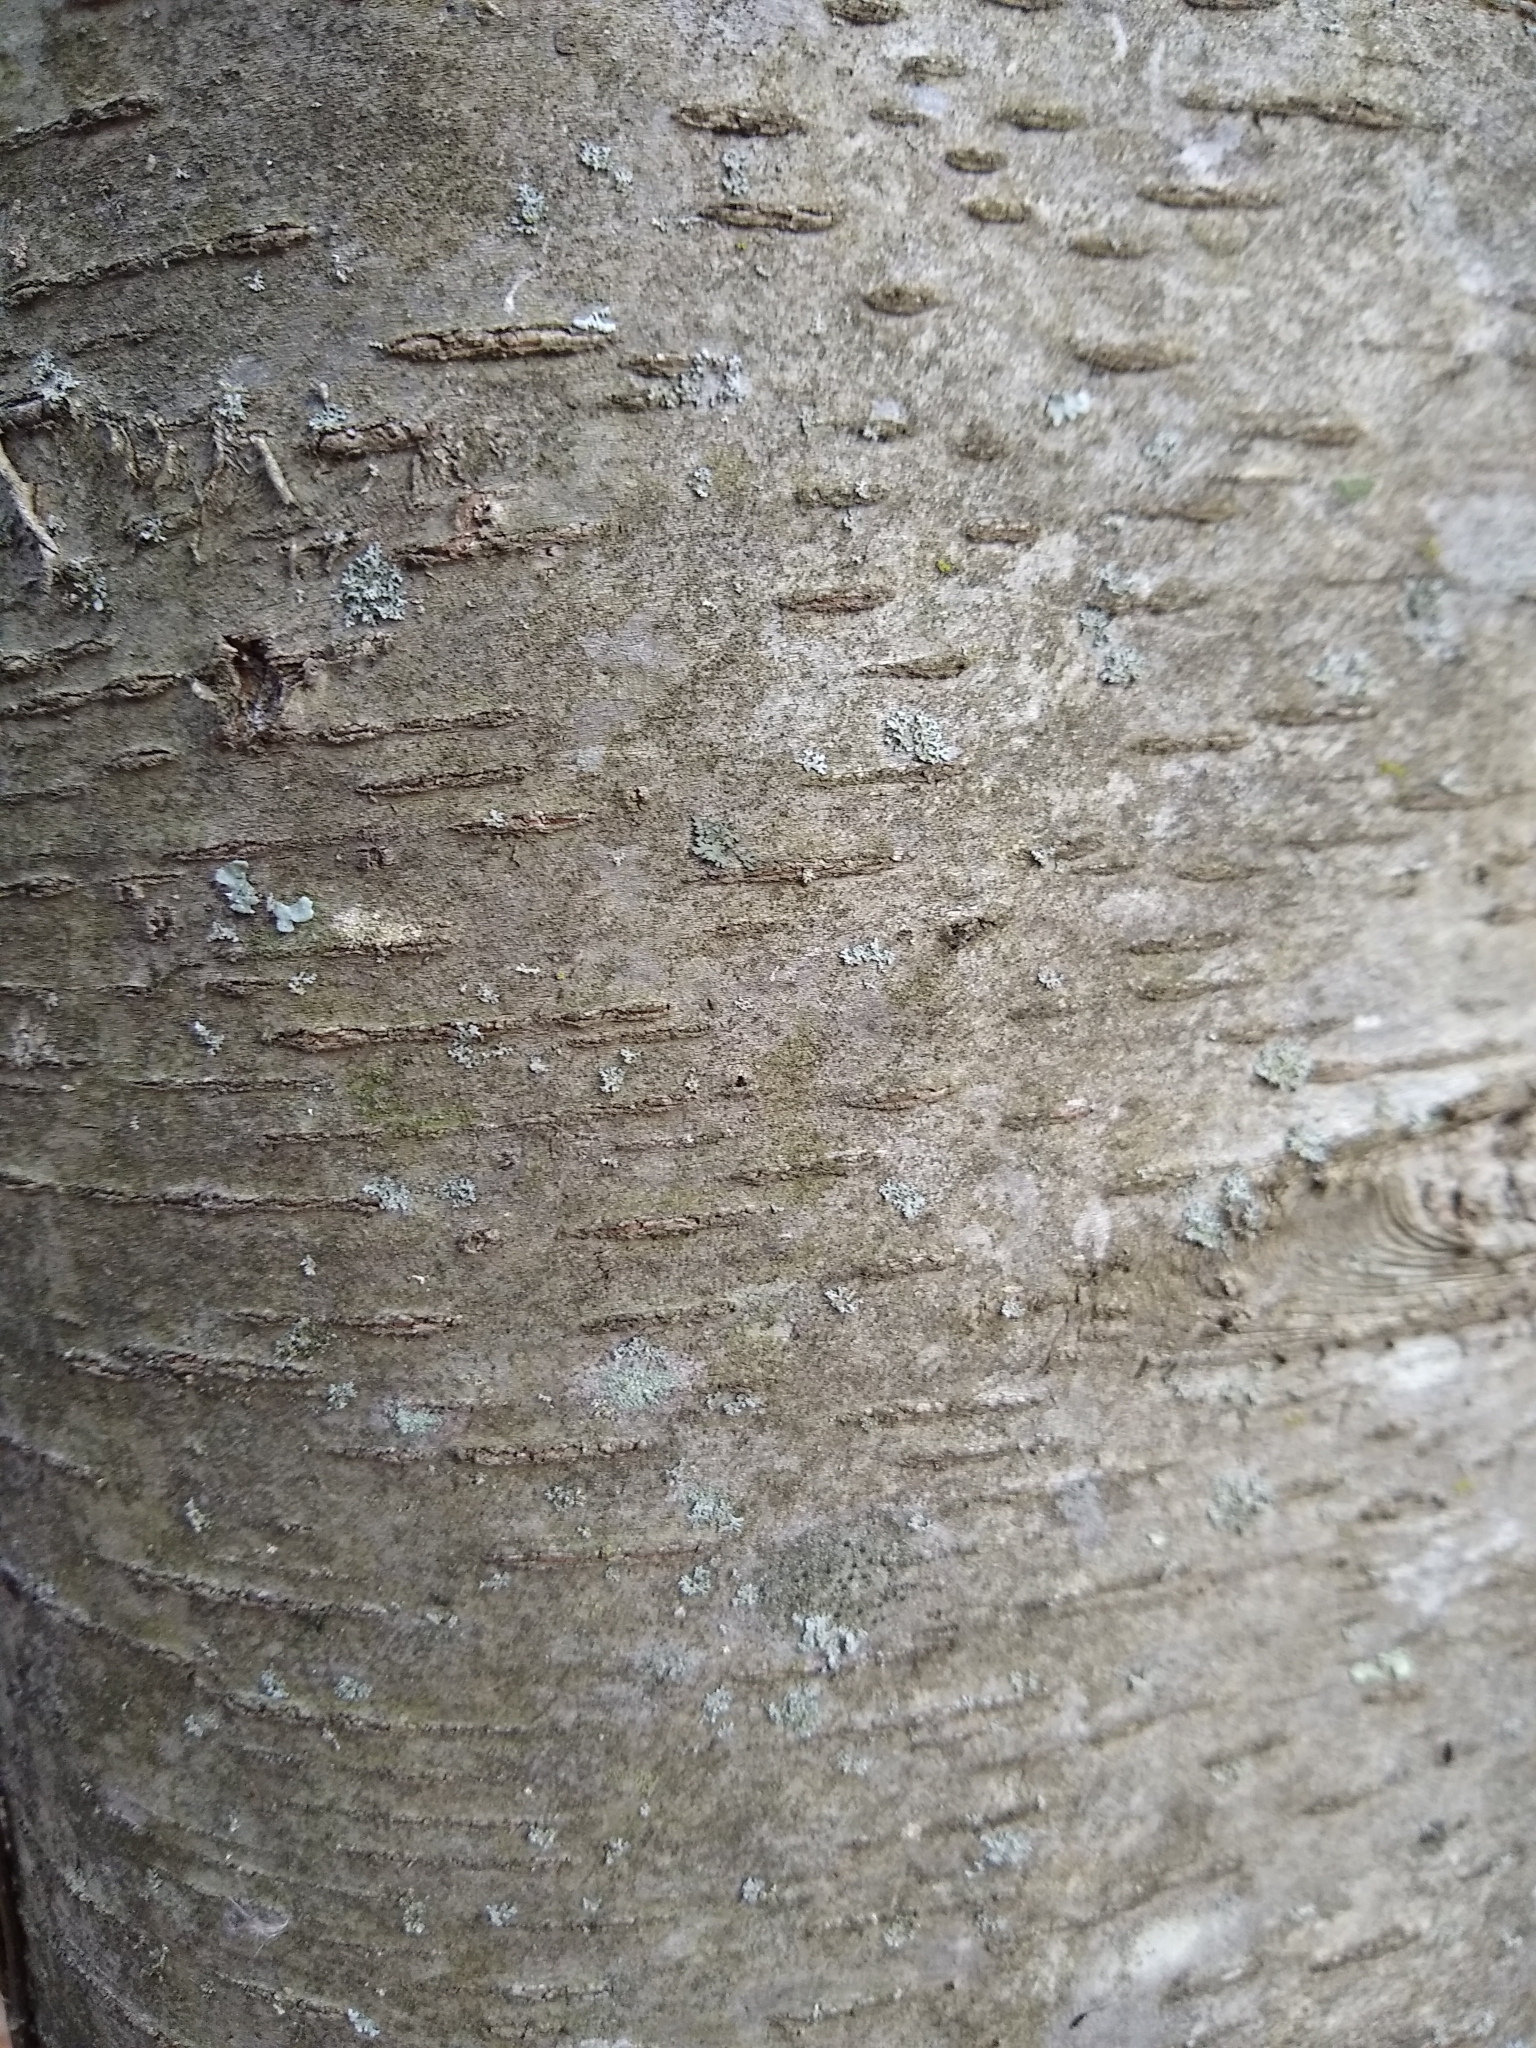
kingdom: Plantae
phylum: Tracheophyta
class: Magnoliopsida
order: Fagales
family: Betulaceae
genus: Betula
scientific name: Betula lenta
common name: Black birch
